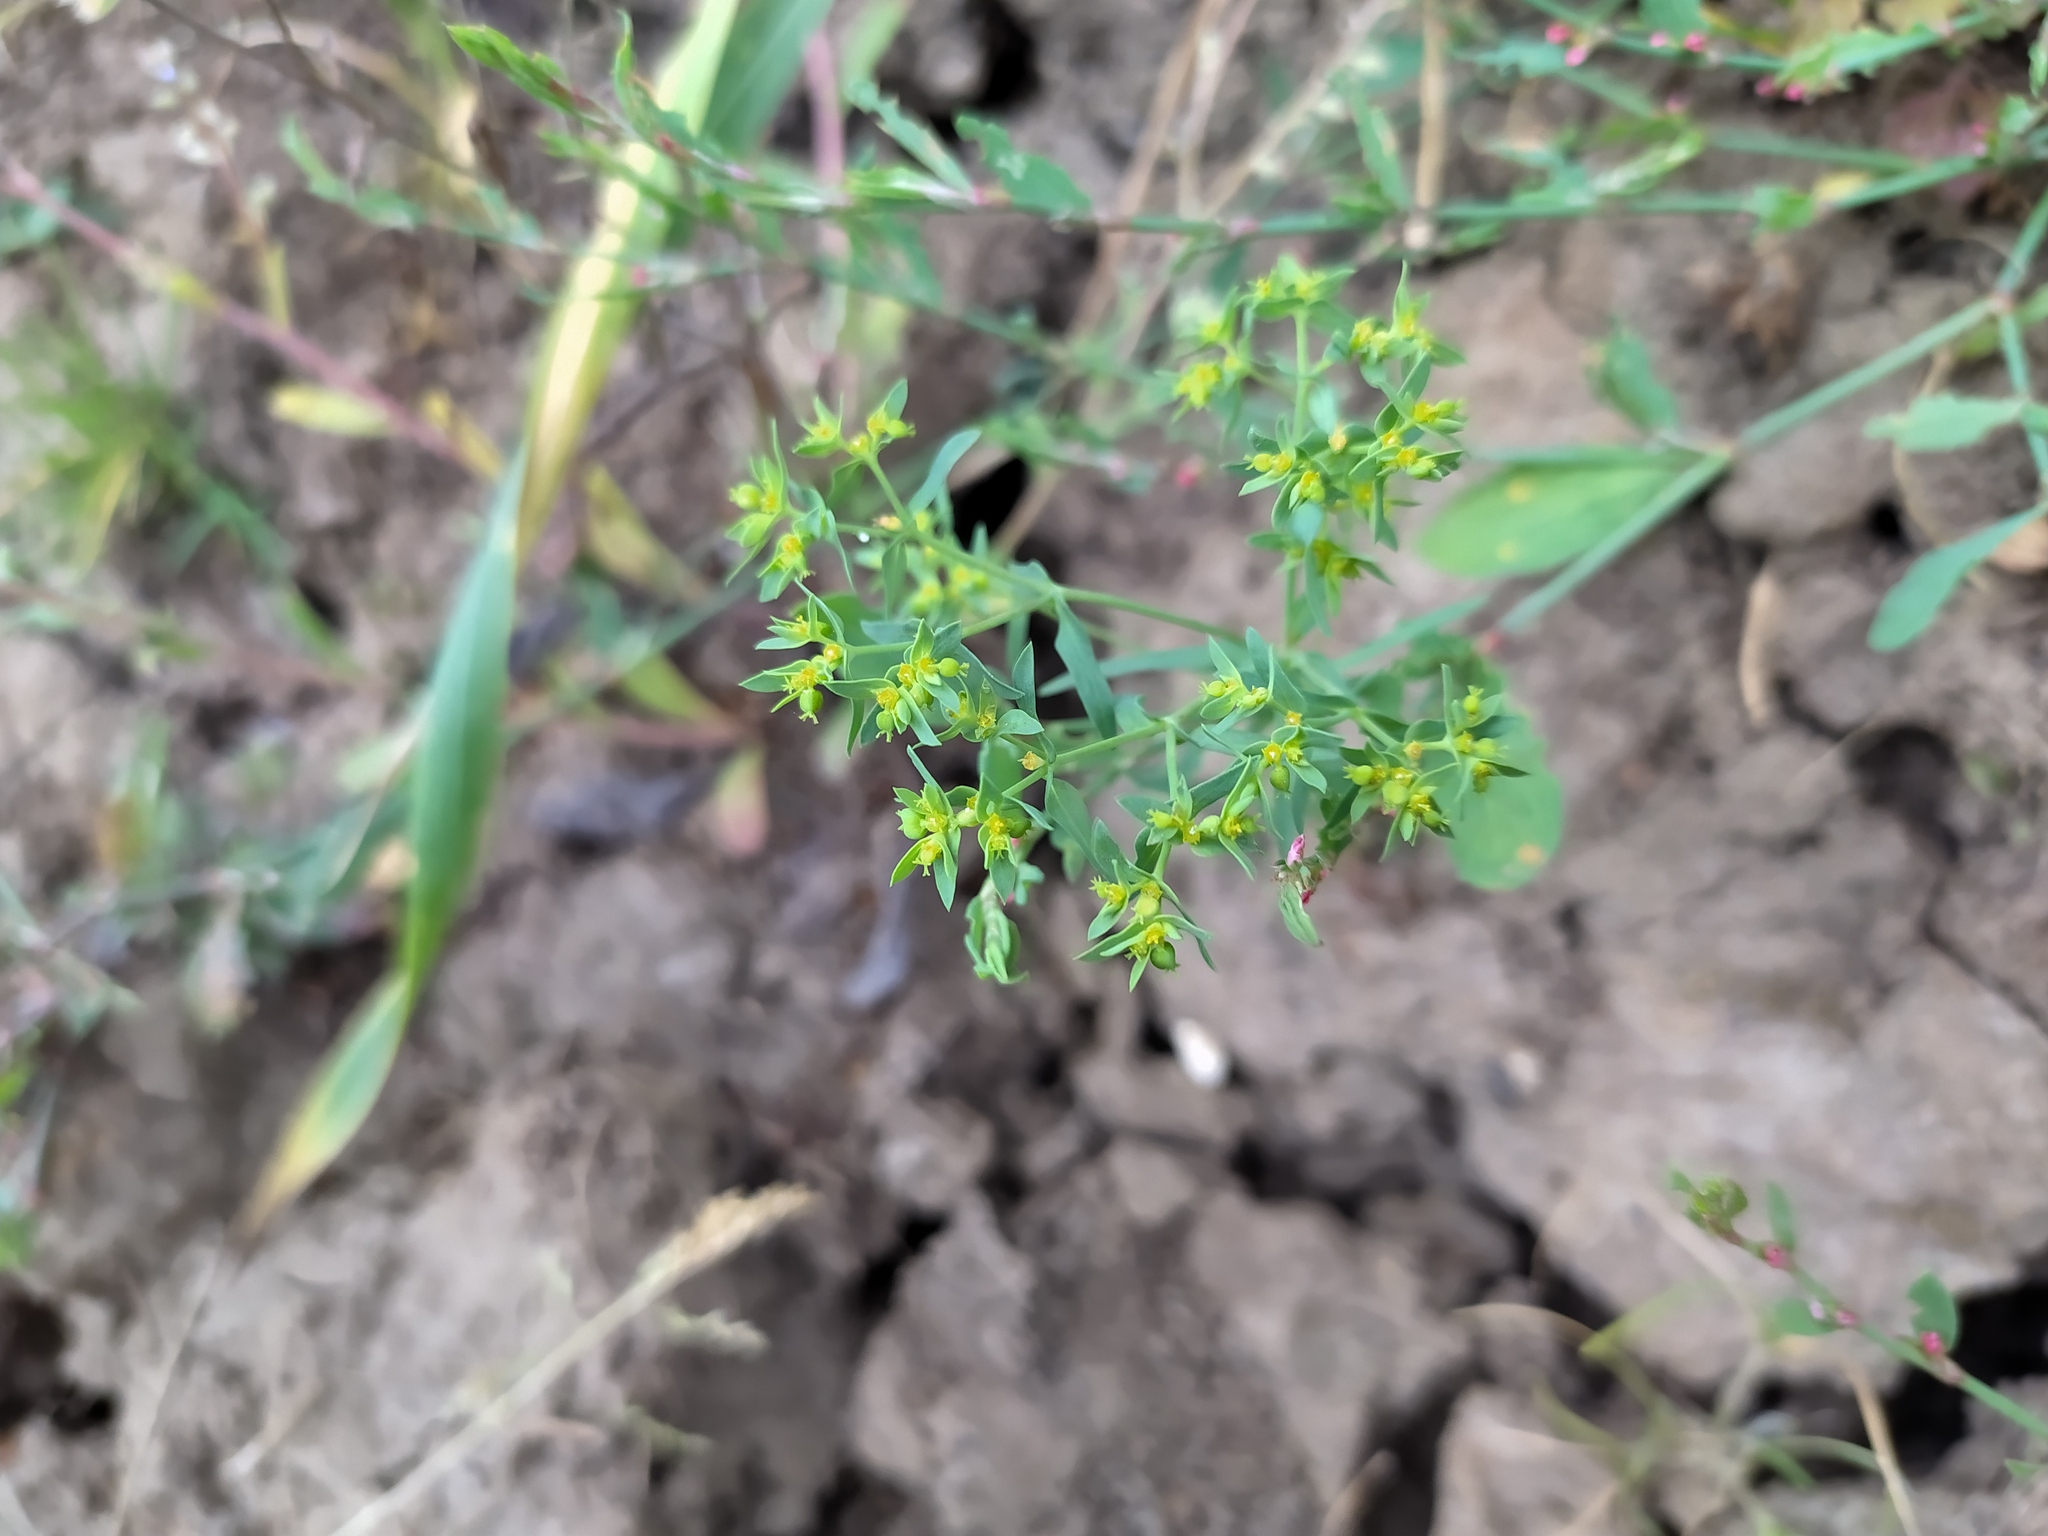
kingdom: Plantae
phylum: Tracheophyta
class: Magnoliopsida
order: Malpighiales
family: Euphorbiaceae
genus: Euphorbia
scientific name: Euphorbia exigua
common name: Dwarf spurge
